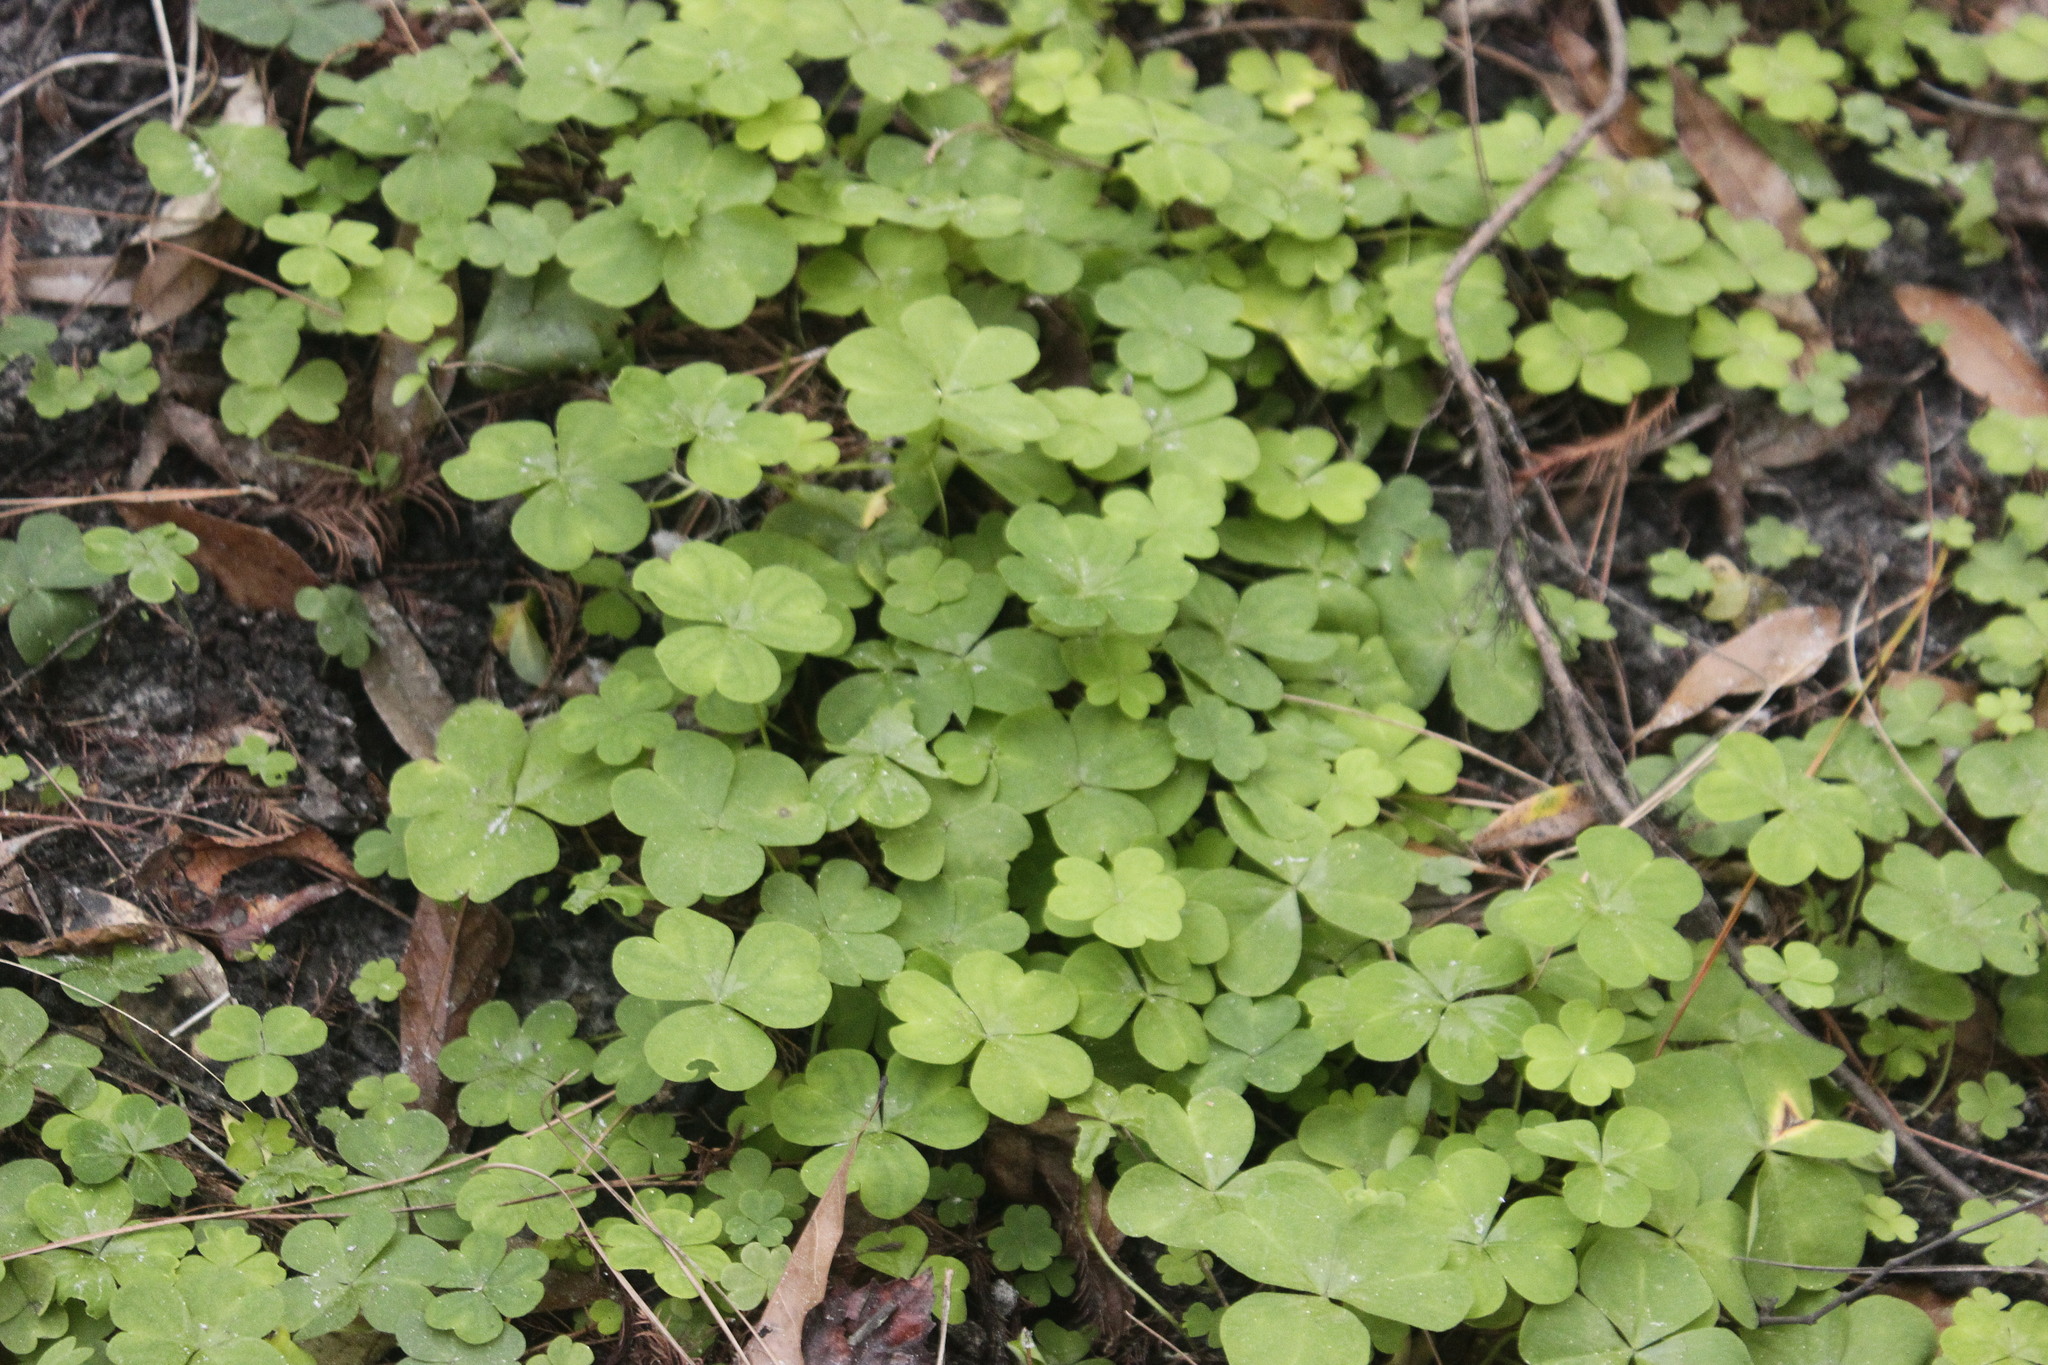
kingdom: Plantae
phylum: Tracheophyta
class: Magnoliopsida
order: Oxalidales
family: Oxalidaceae
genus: Oxalis
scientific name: Oxalis debilis
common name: Large-flowered pink-sorrel
